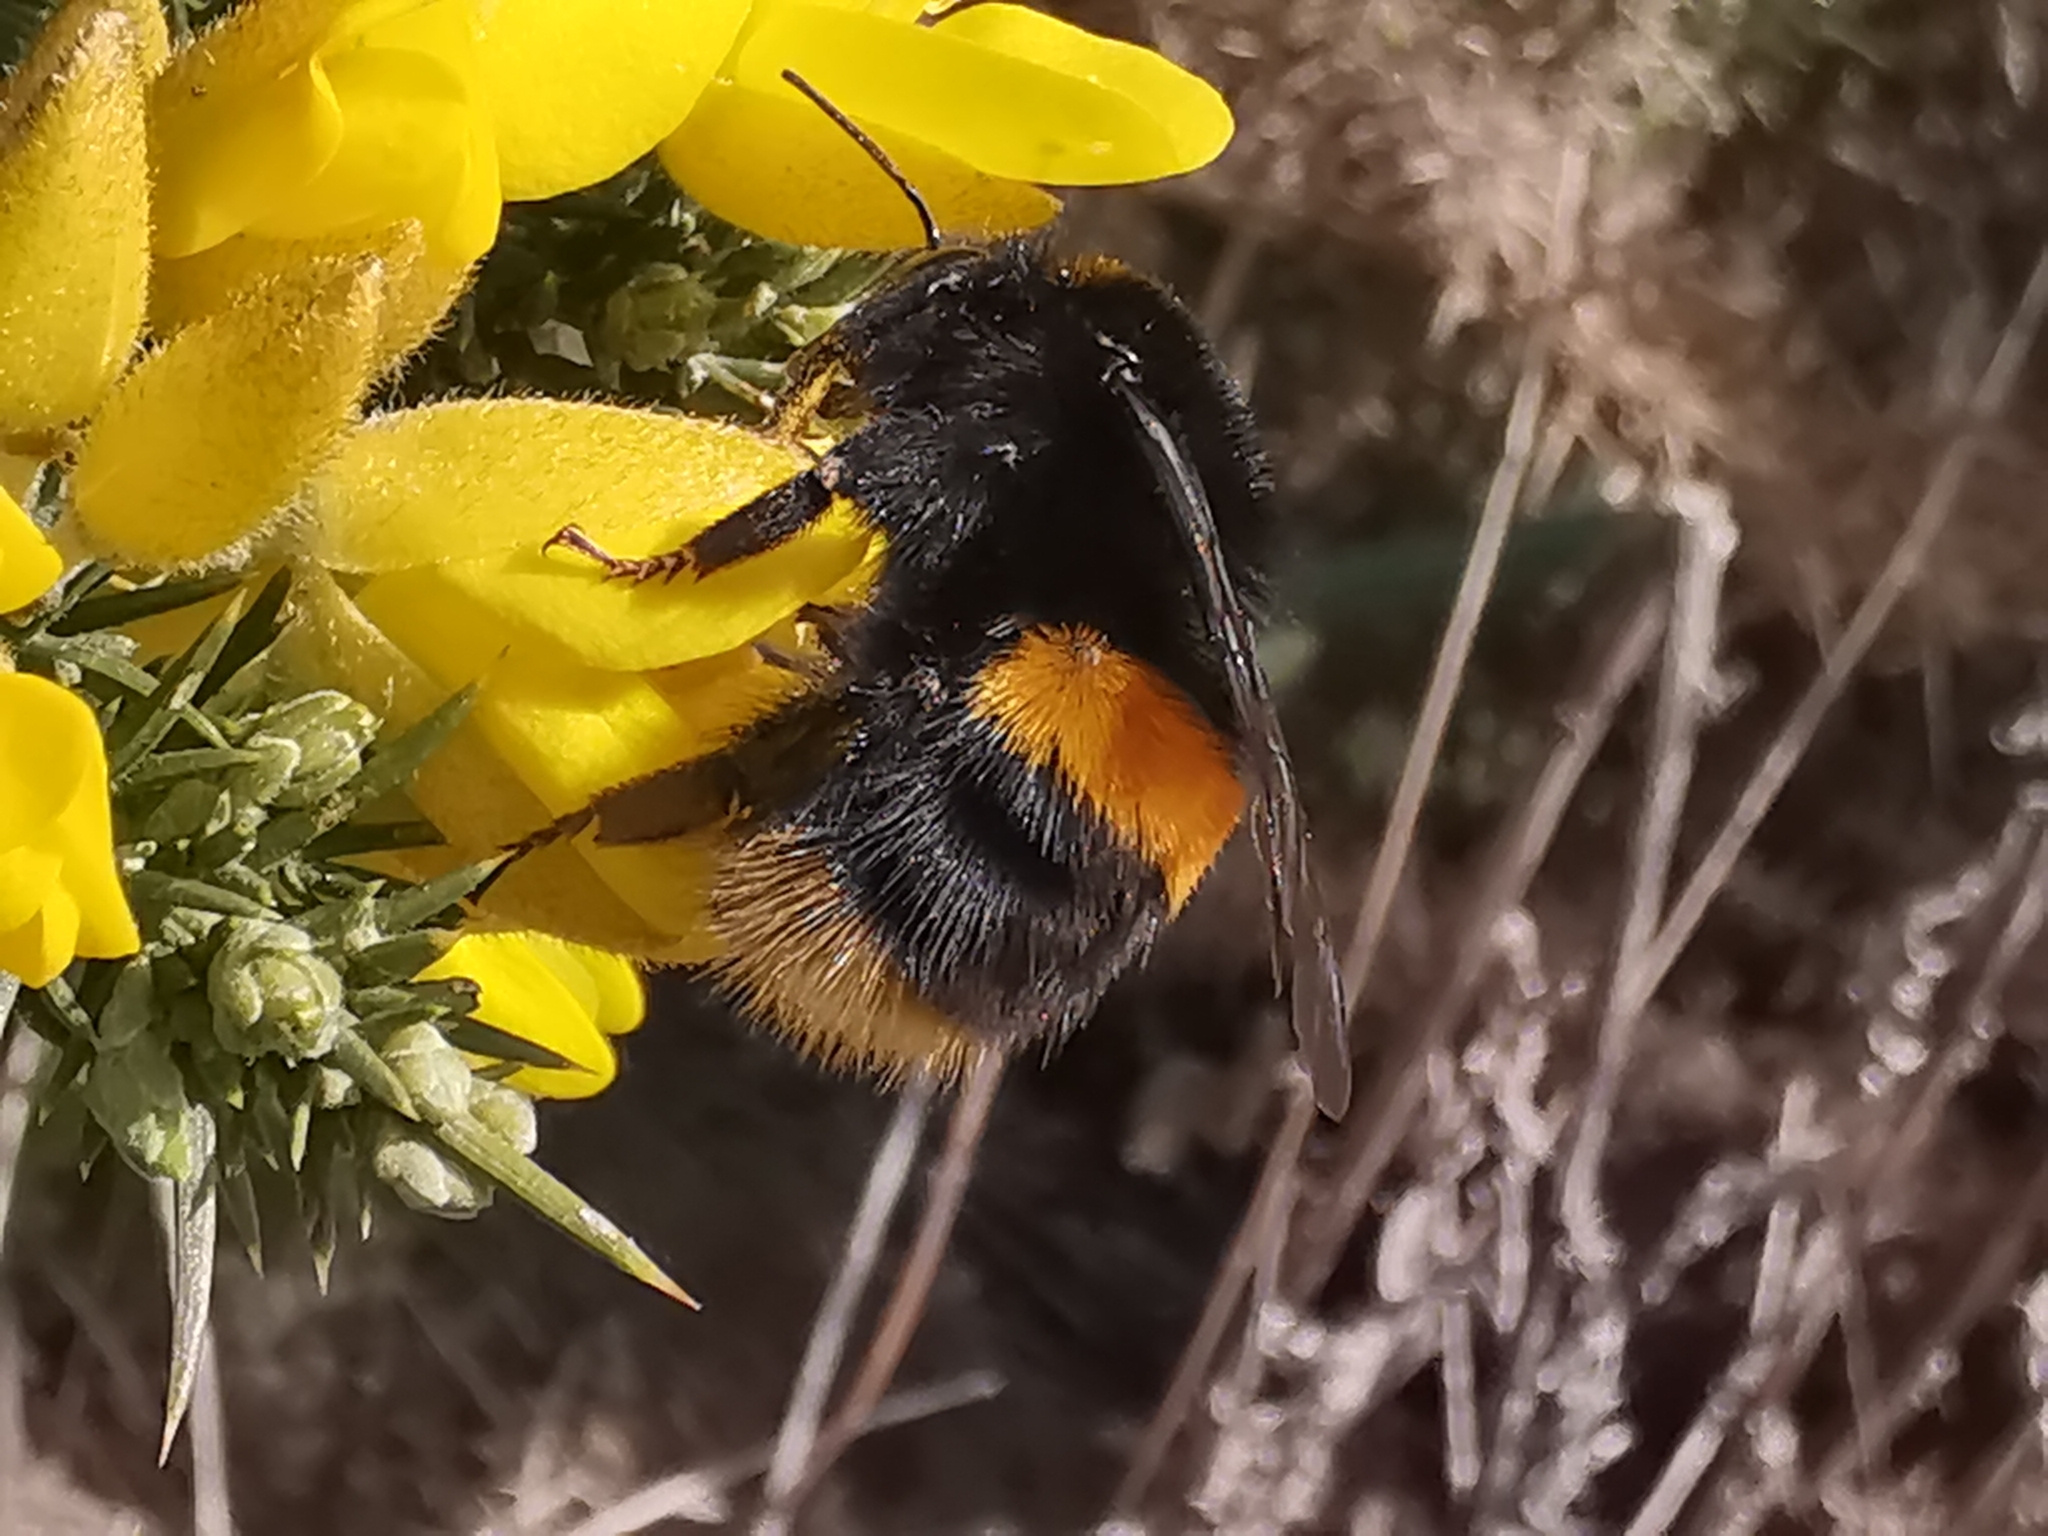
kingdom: Animalia
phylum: Arthropoda
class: Insecta
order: Hymenoptera
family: Apidae
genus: Bombus
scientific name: Bombus terrestris
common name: Buff-tailed bumblebee
